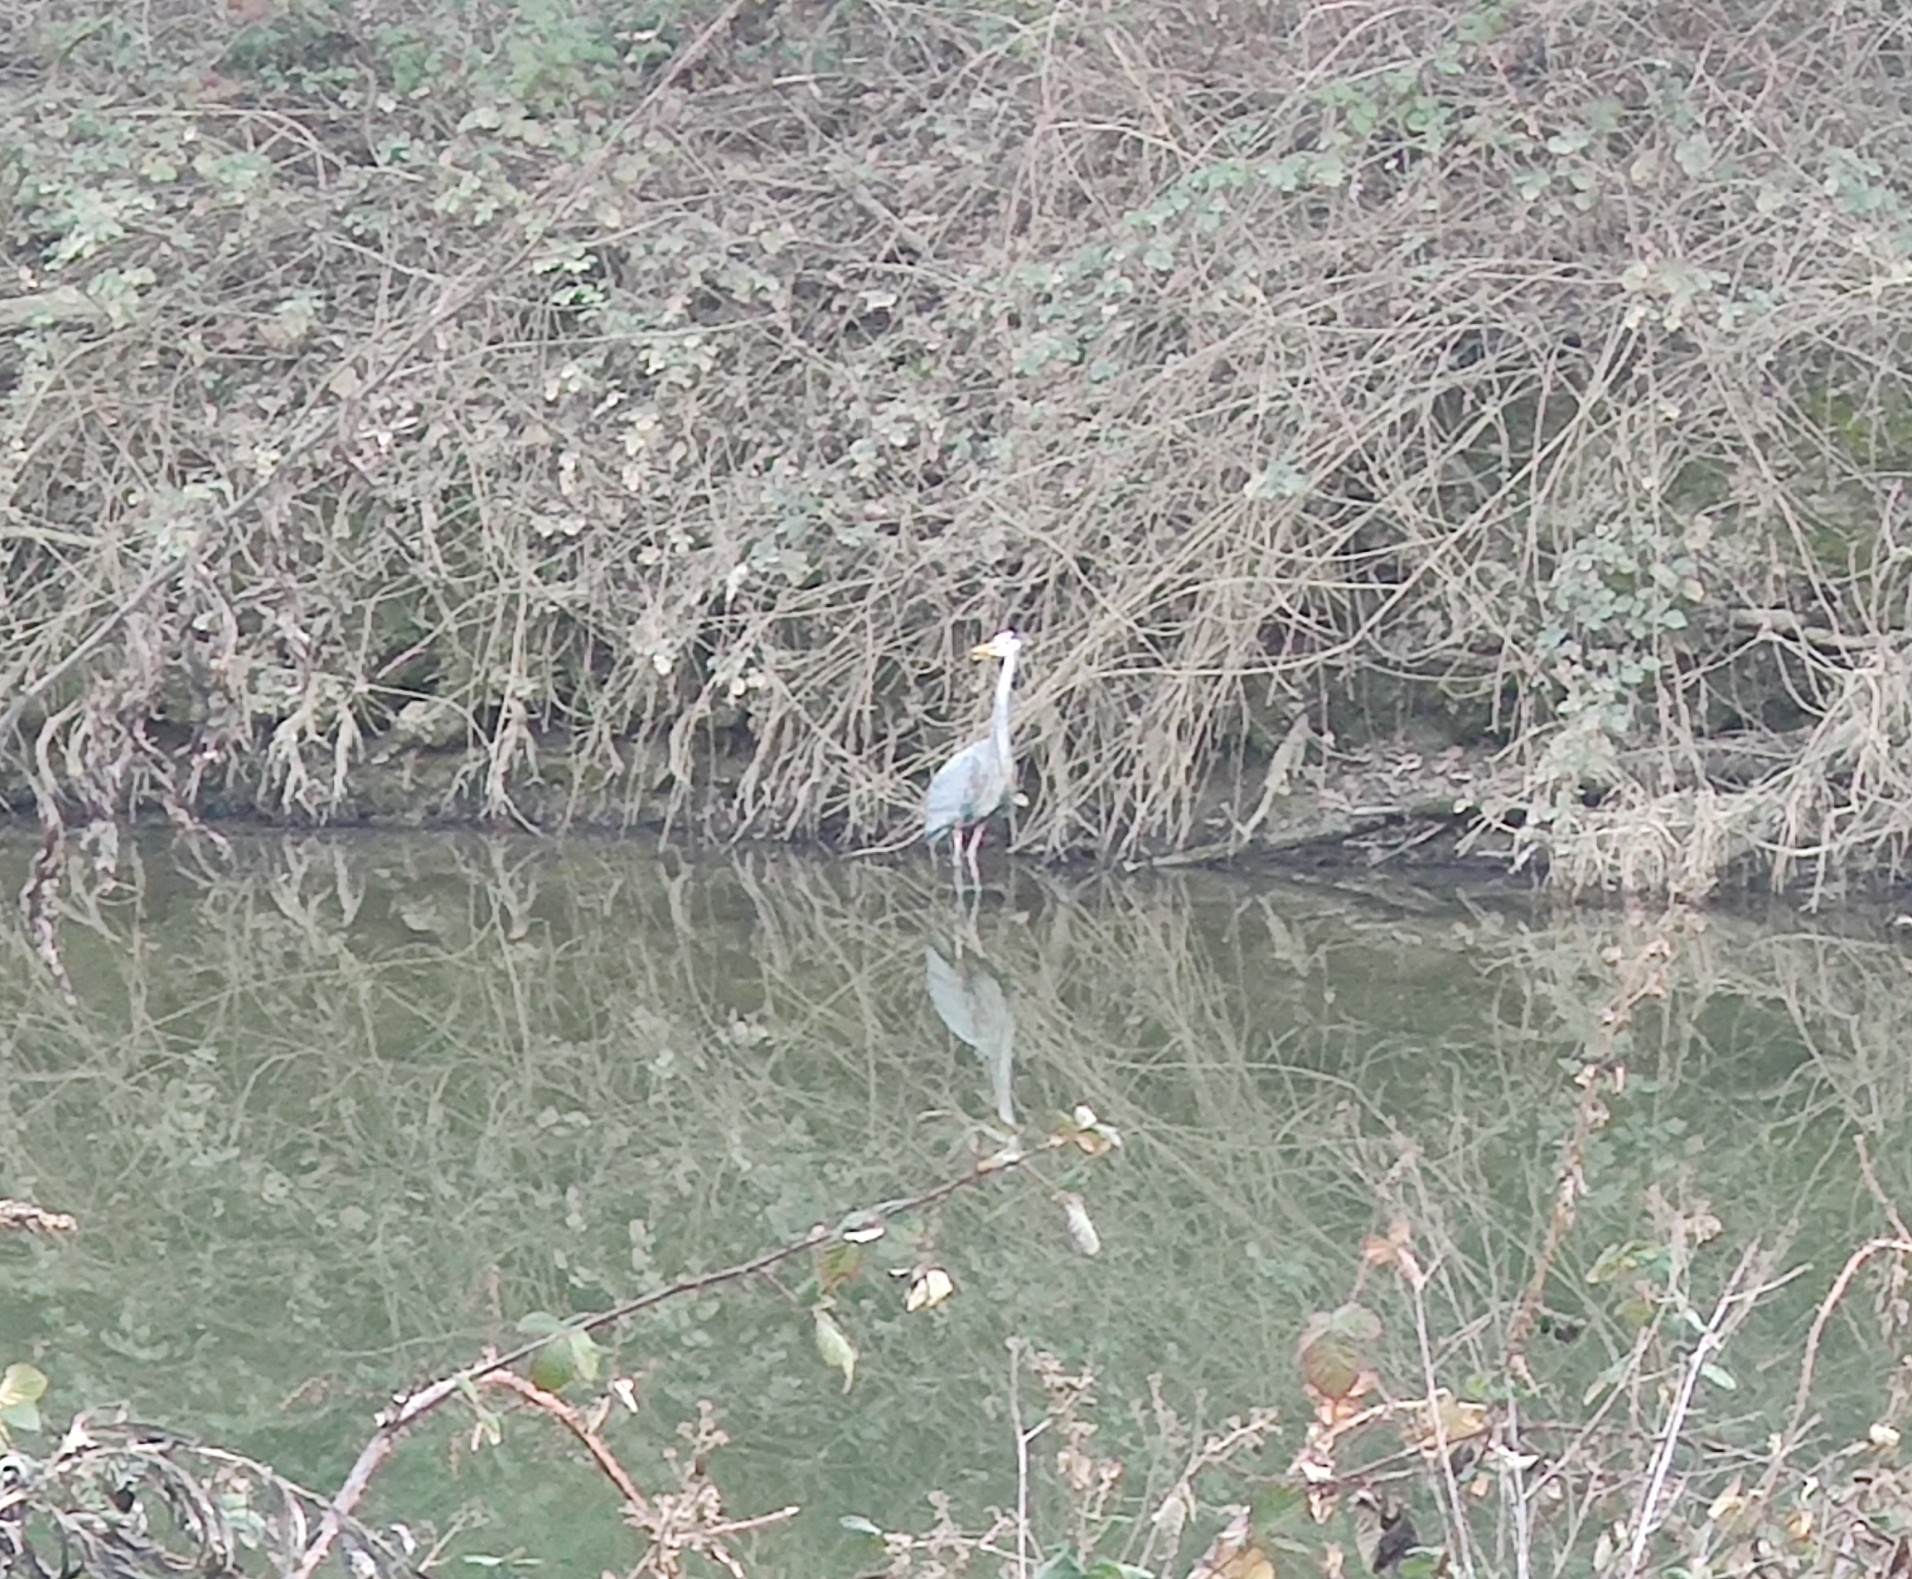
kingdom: Animalia
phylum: Chordata
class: Aves
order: Pelecaniformes
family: Ardeidae
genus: Ardea
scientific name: Ardea herodias
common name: Great blue heron
